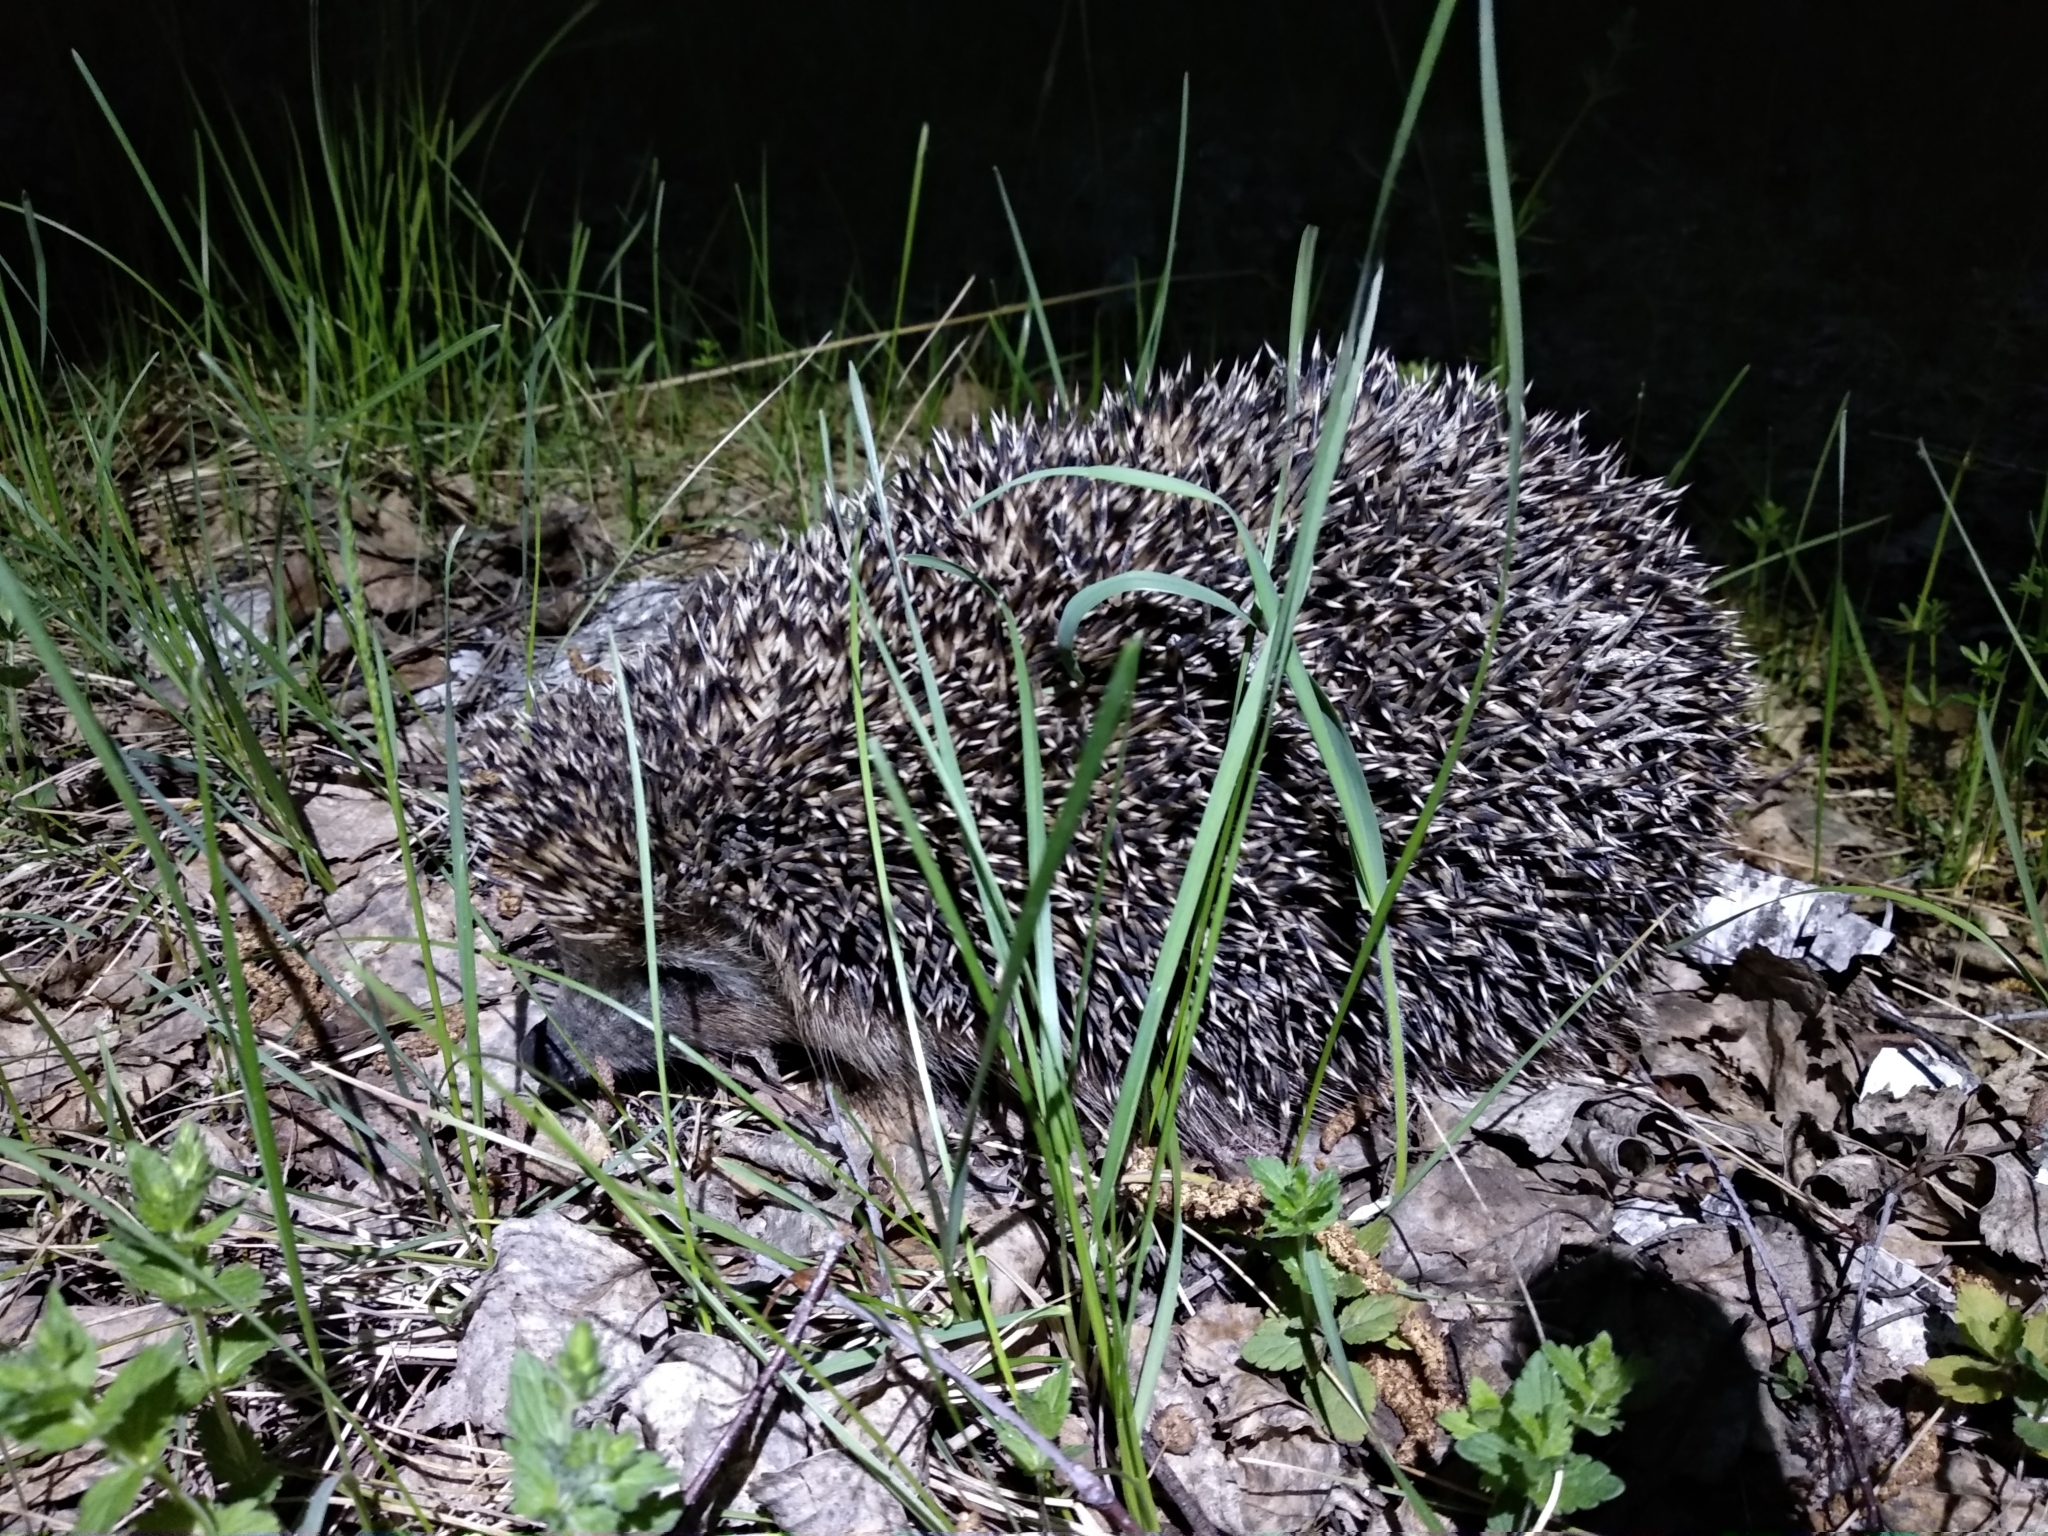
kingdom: Animalia
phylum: Chordata
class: Mammalia
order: Erinaceomorpha
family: Erinaceidae
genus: Erinaceus
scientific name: Erinaceus roumanicus
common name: Northern white-breasted hedgehog
